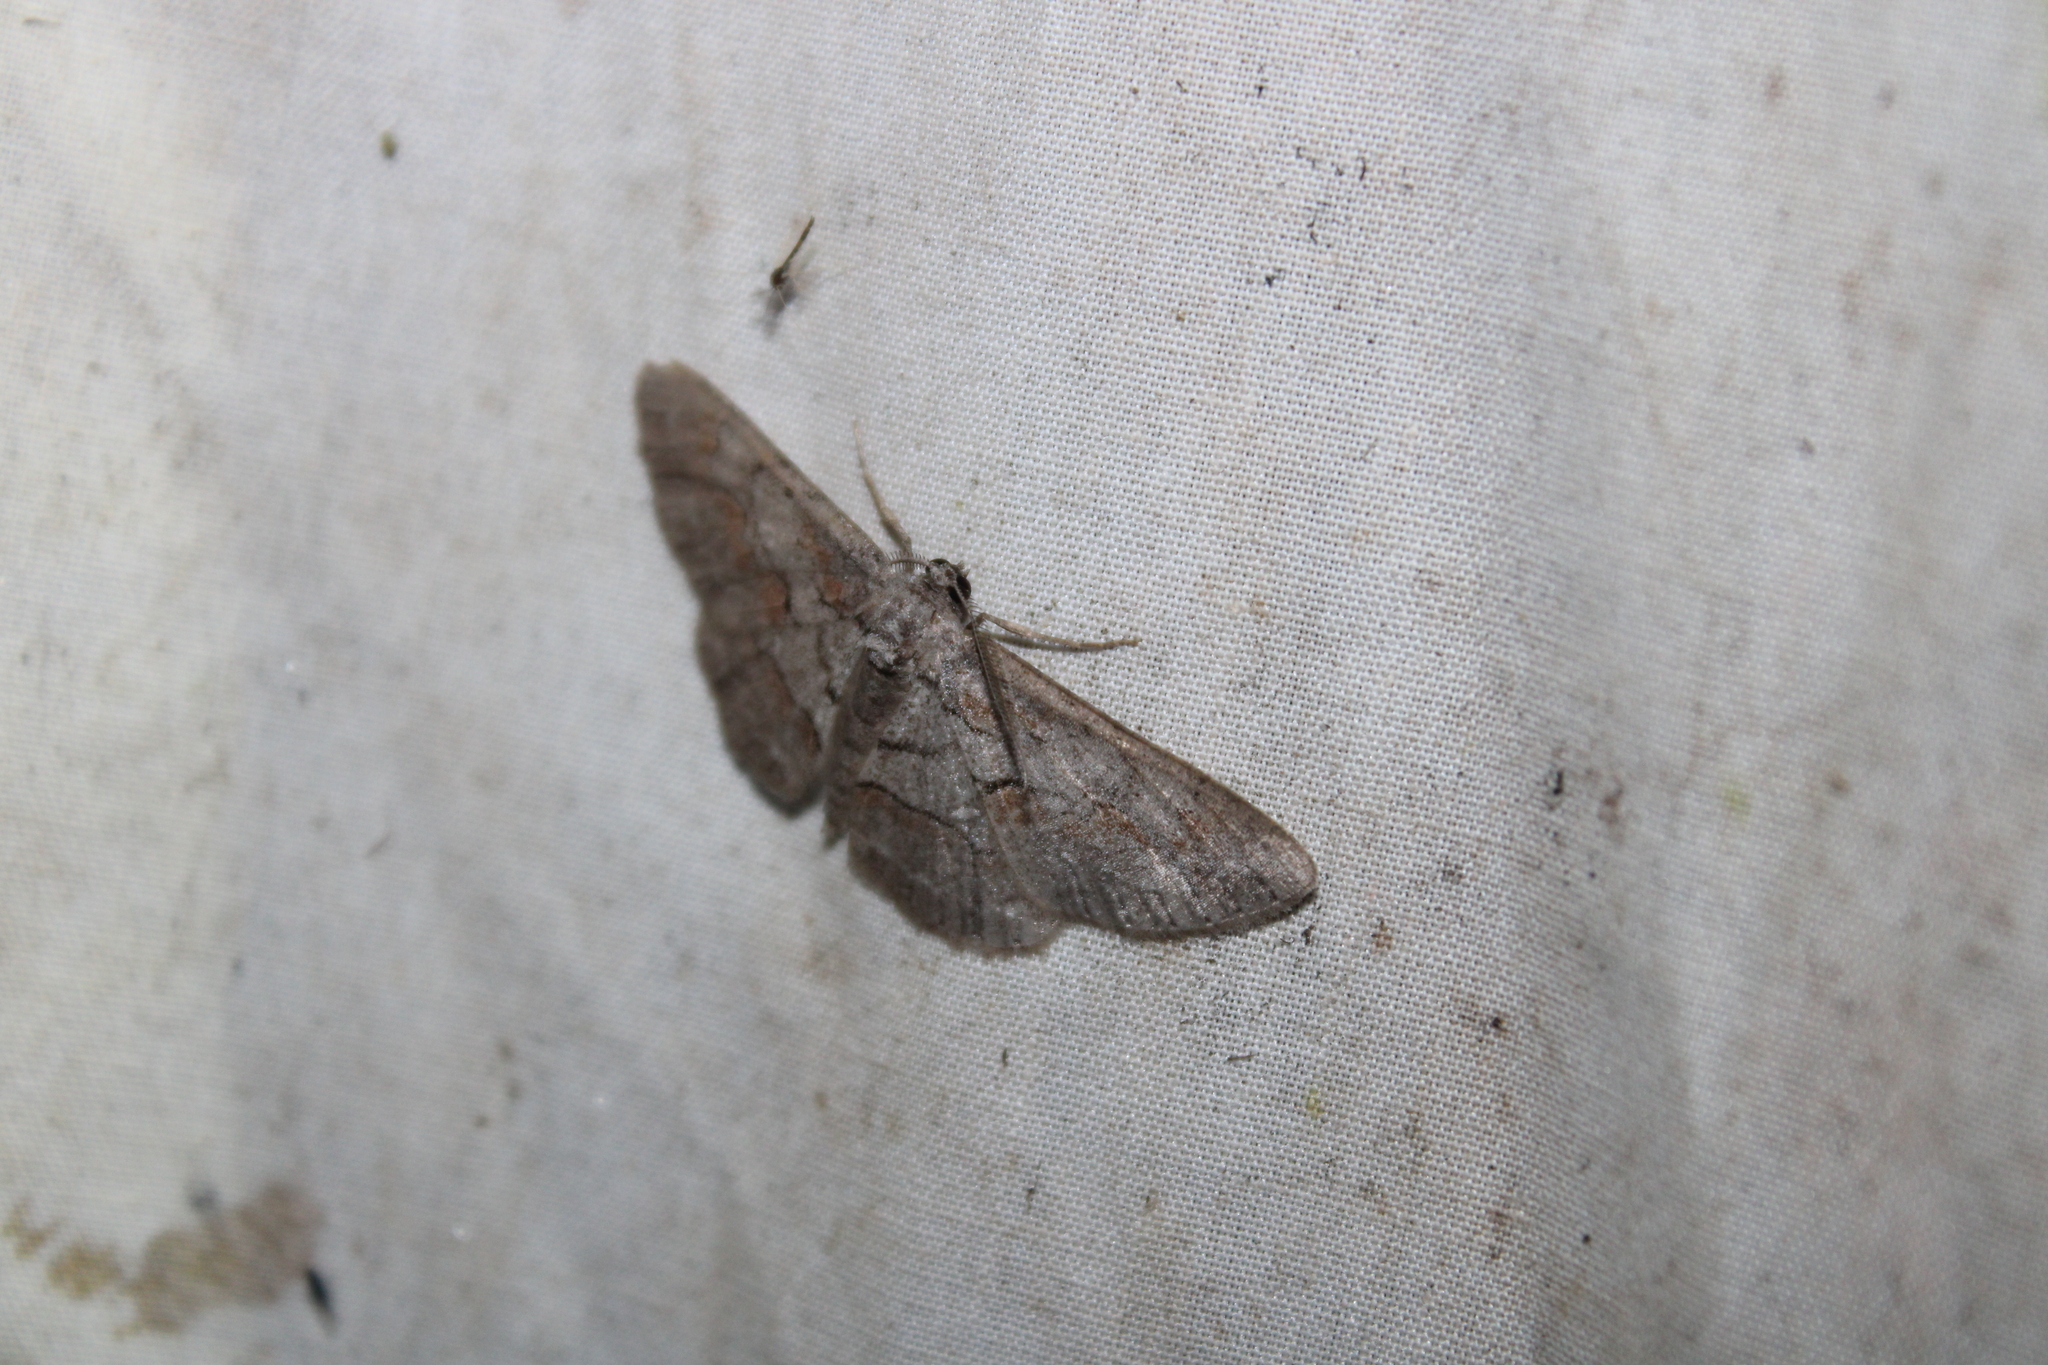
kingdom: Animalia
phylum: Arthropoda
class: Insecta
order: Lepidoptera
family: Geometridae
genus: Iridopsis
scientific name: Iridopsis vellivolata
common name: Large purplish gray
